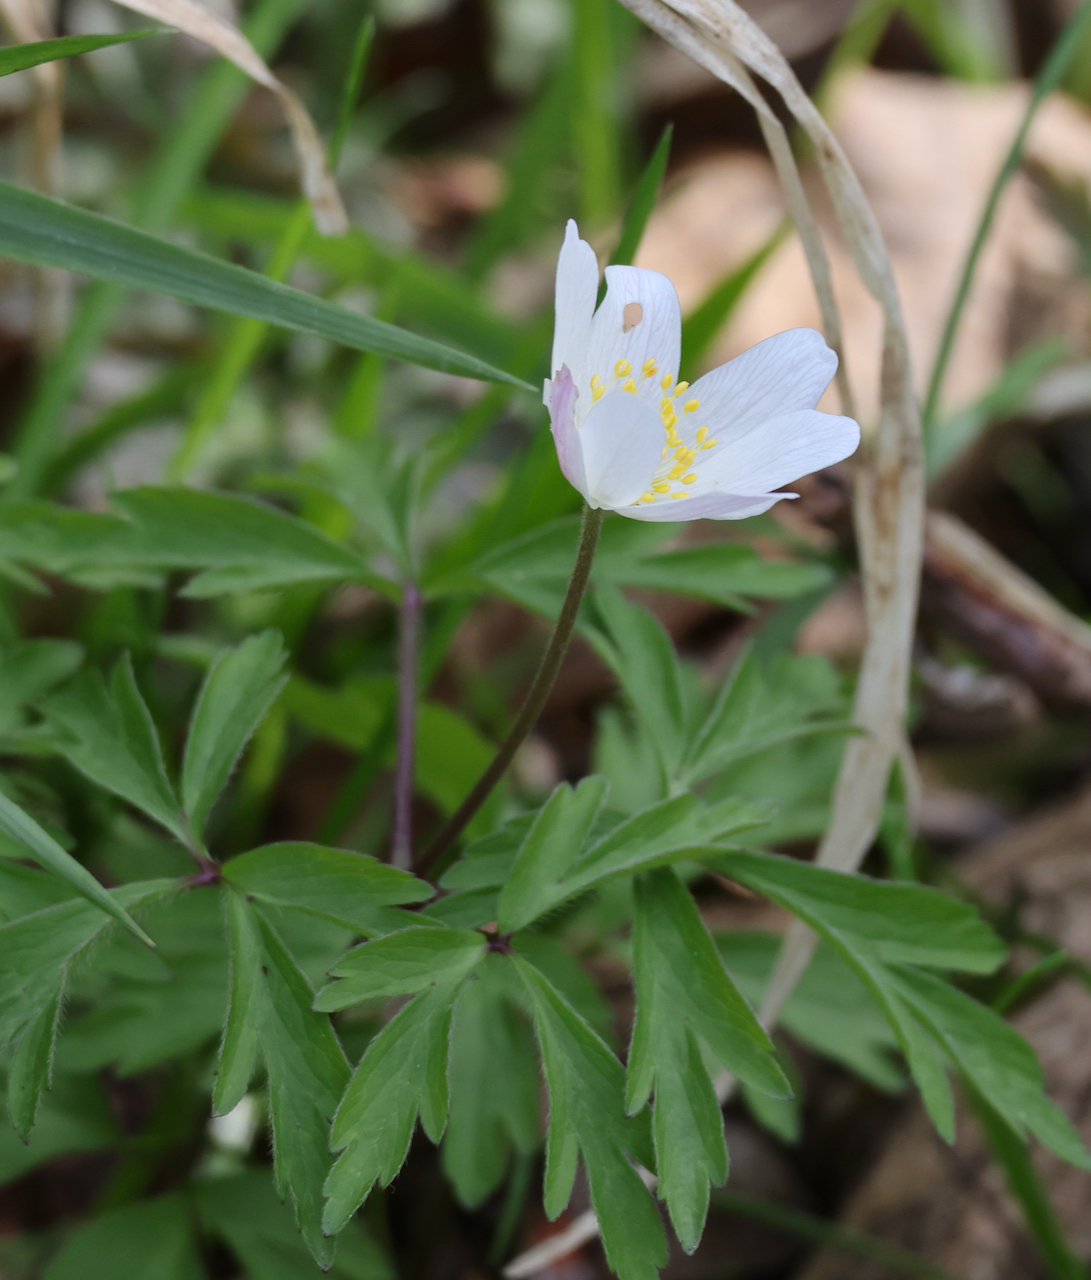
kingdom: Plantae
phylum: Tracheophyta
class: Magnoliopsida
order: Ranunculales
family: Ranunculaceae
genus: Anemone
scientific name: Anemone nemorosa
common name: Wood anemone
